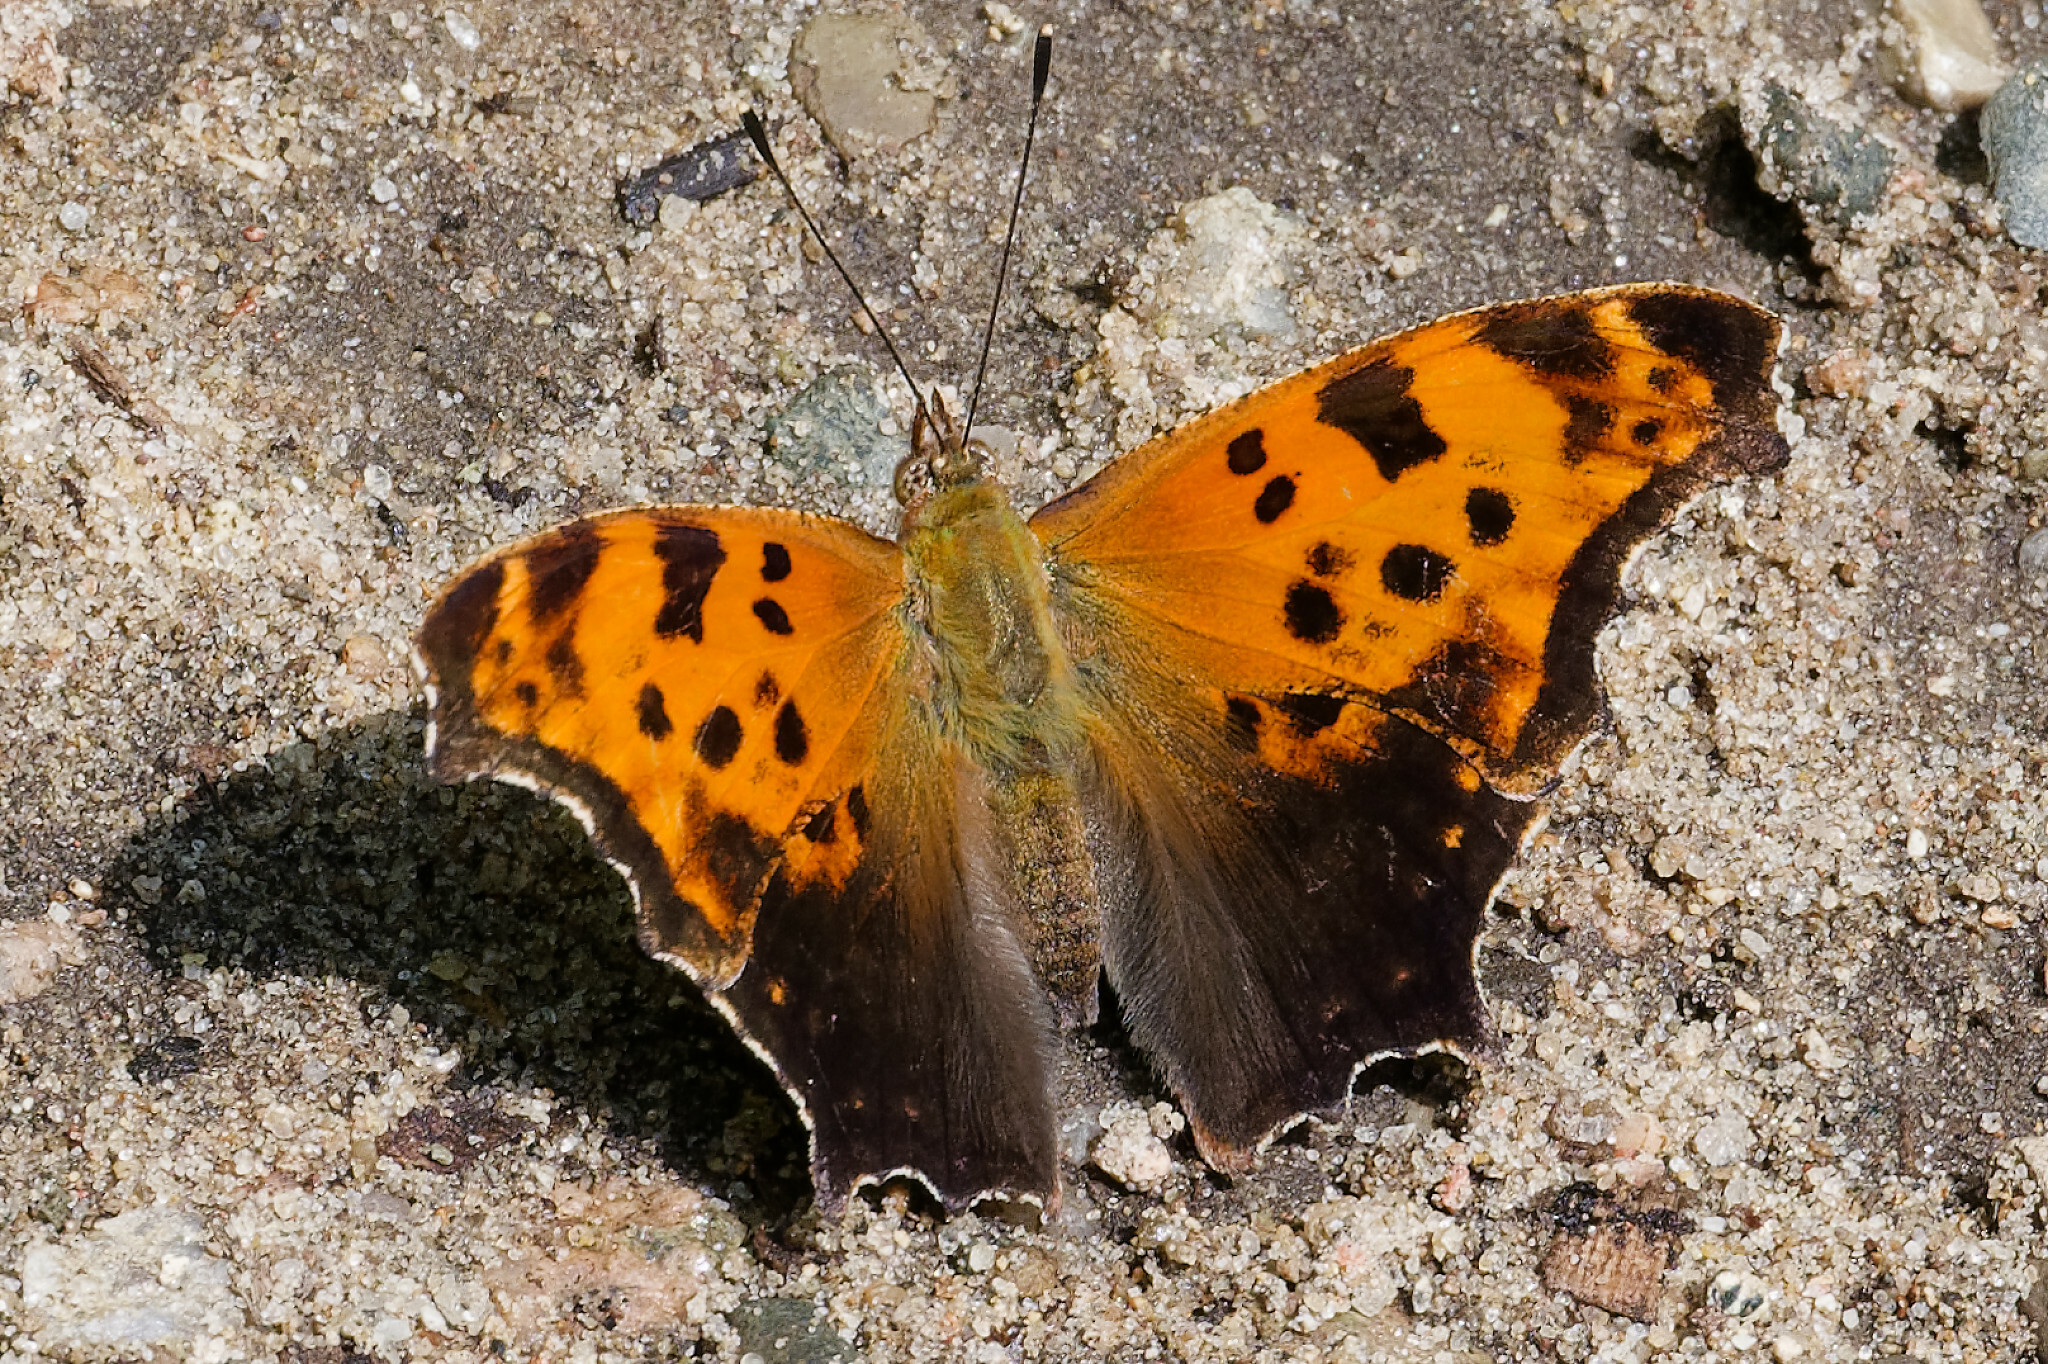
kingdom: Animalia
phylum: Arthropoda
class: Insecta
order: Lepidoptera
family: Nymphalidae
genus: Polygonia
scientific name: Polygonia comma
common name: Eastern comma
